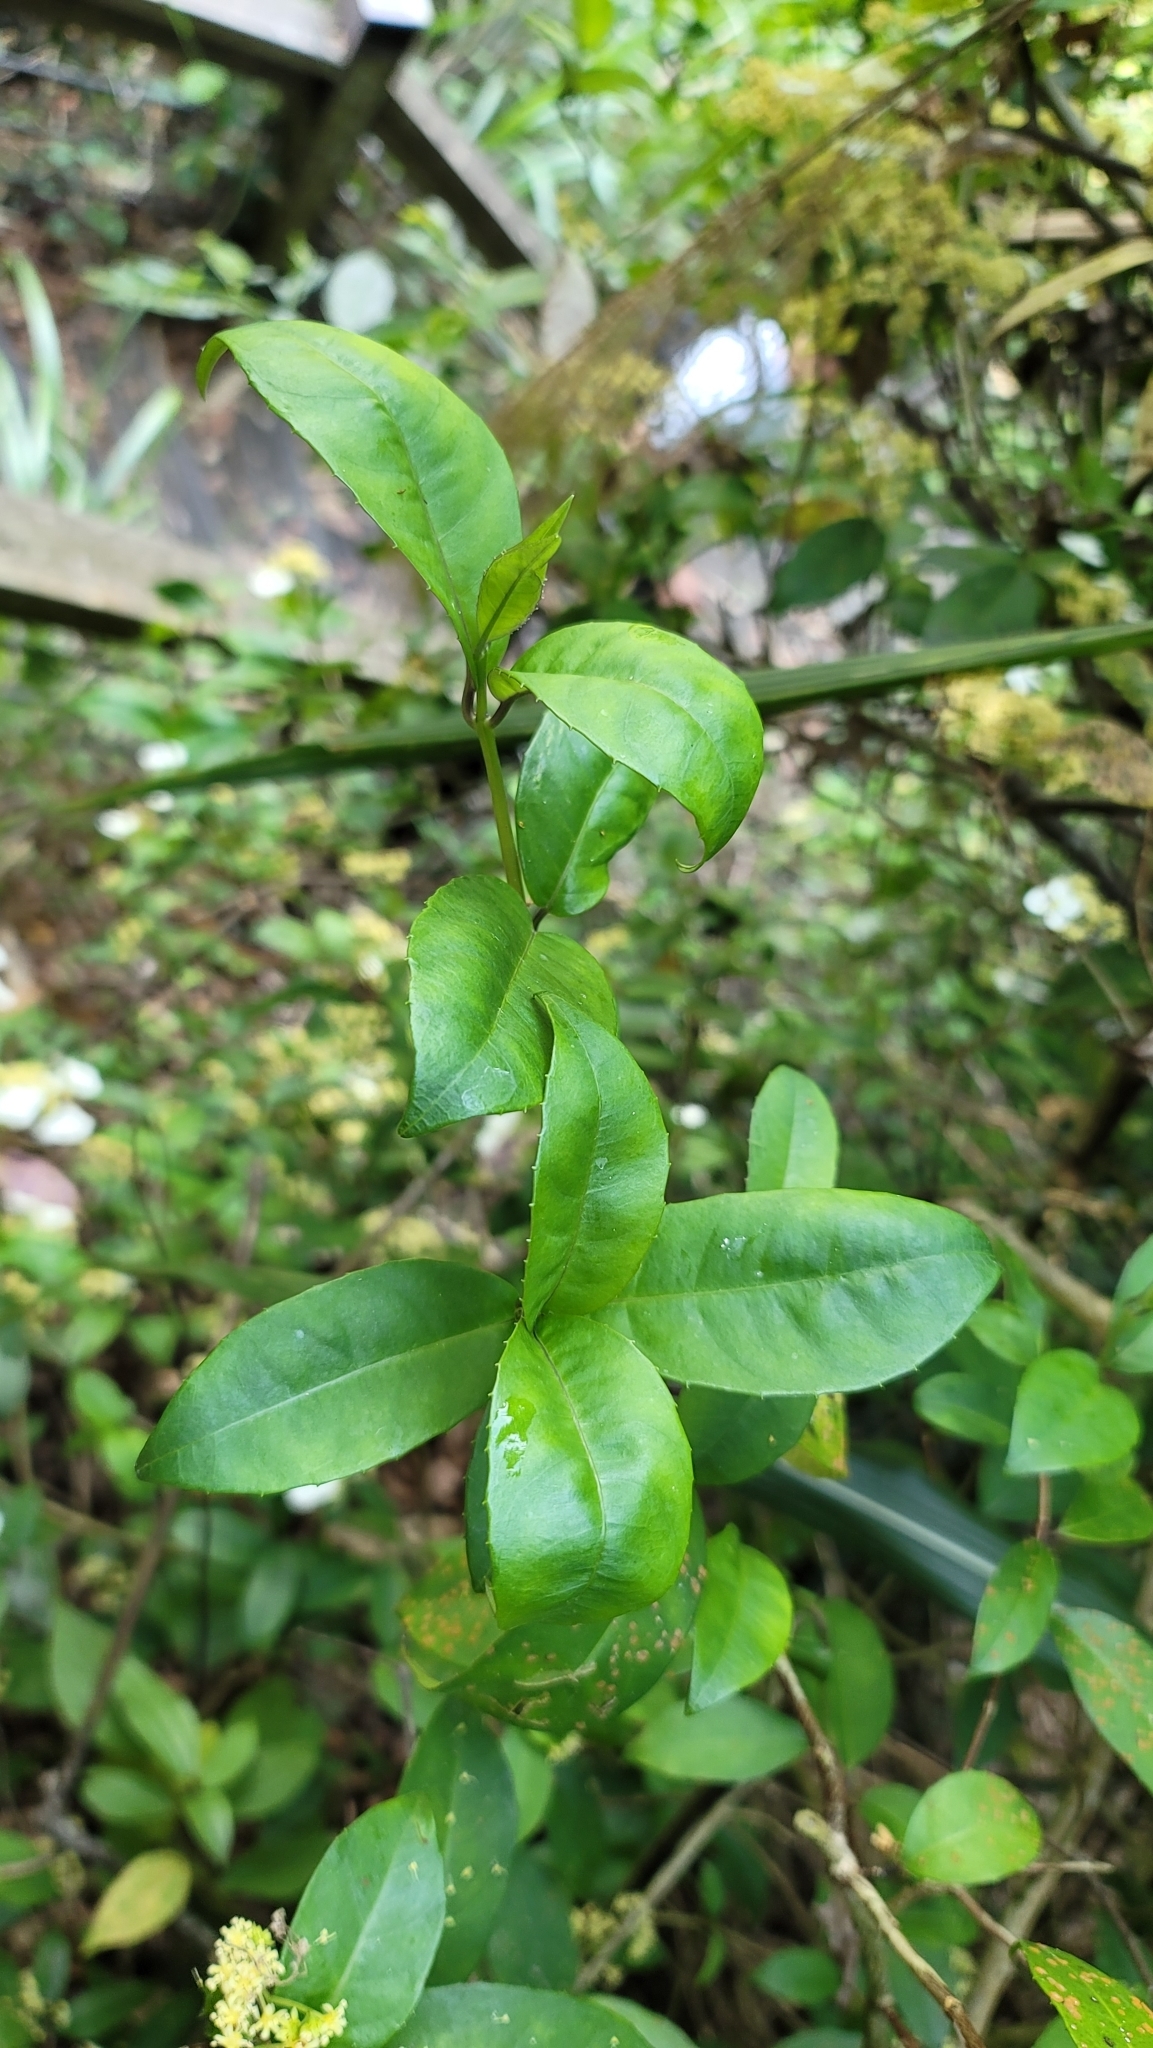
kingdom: Plantae
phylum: Tracheophyta
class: Magnoliopsida
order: Cornales
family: Hydrangeaceae
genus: Hydrangea
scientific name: Hydrangea chinensis
